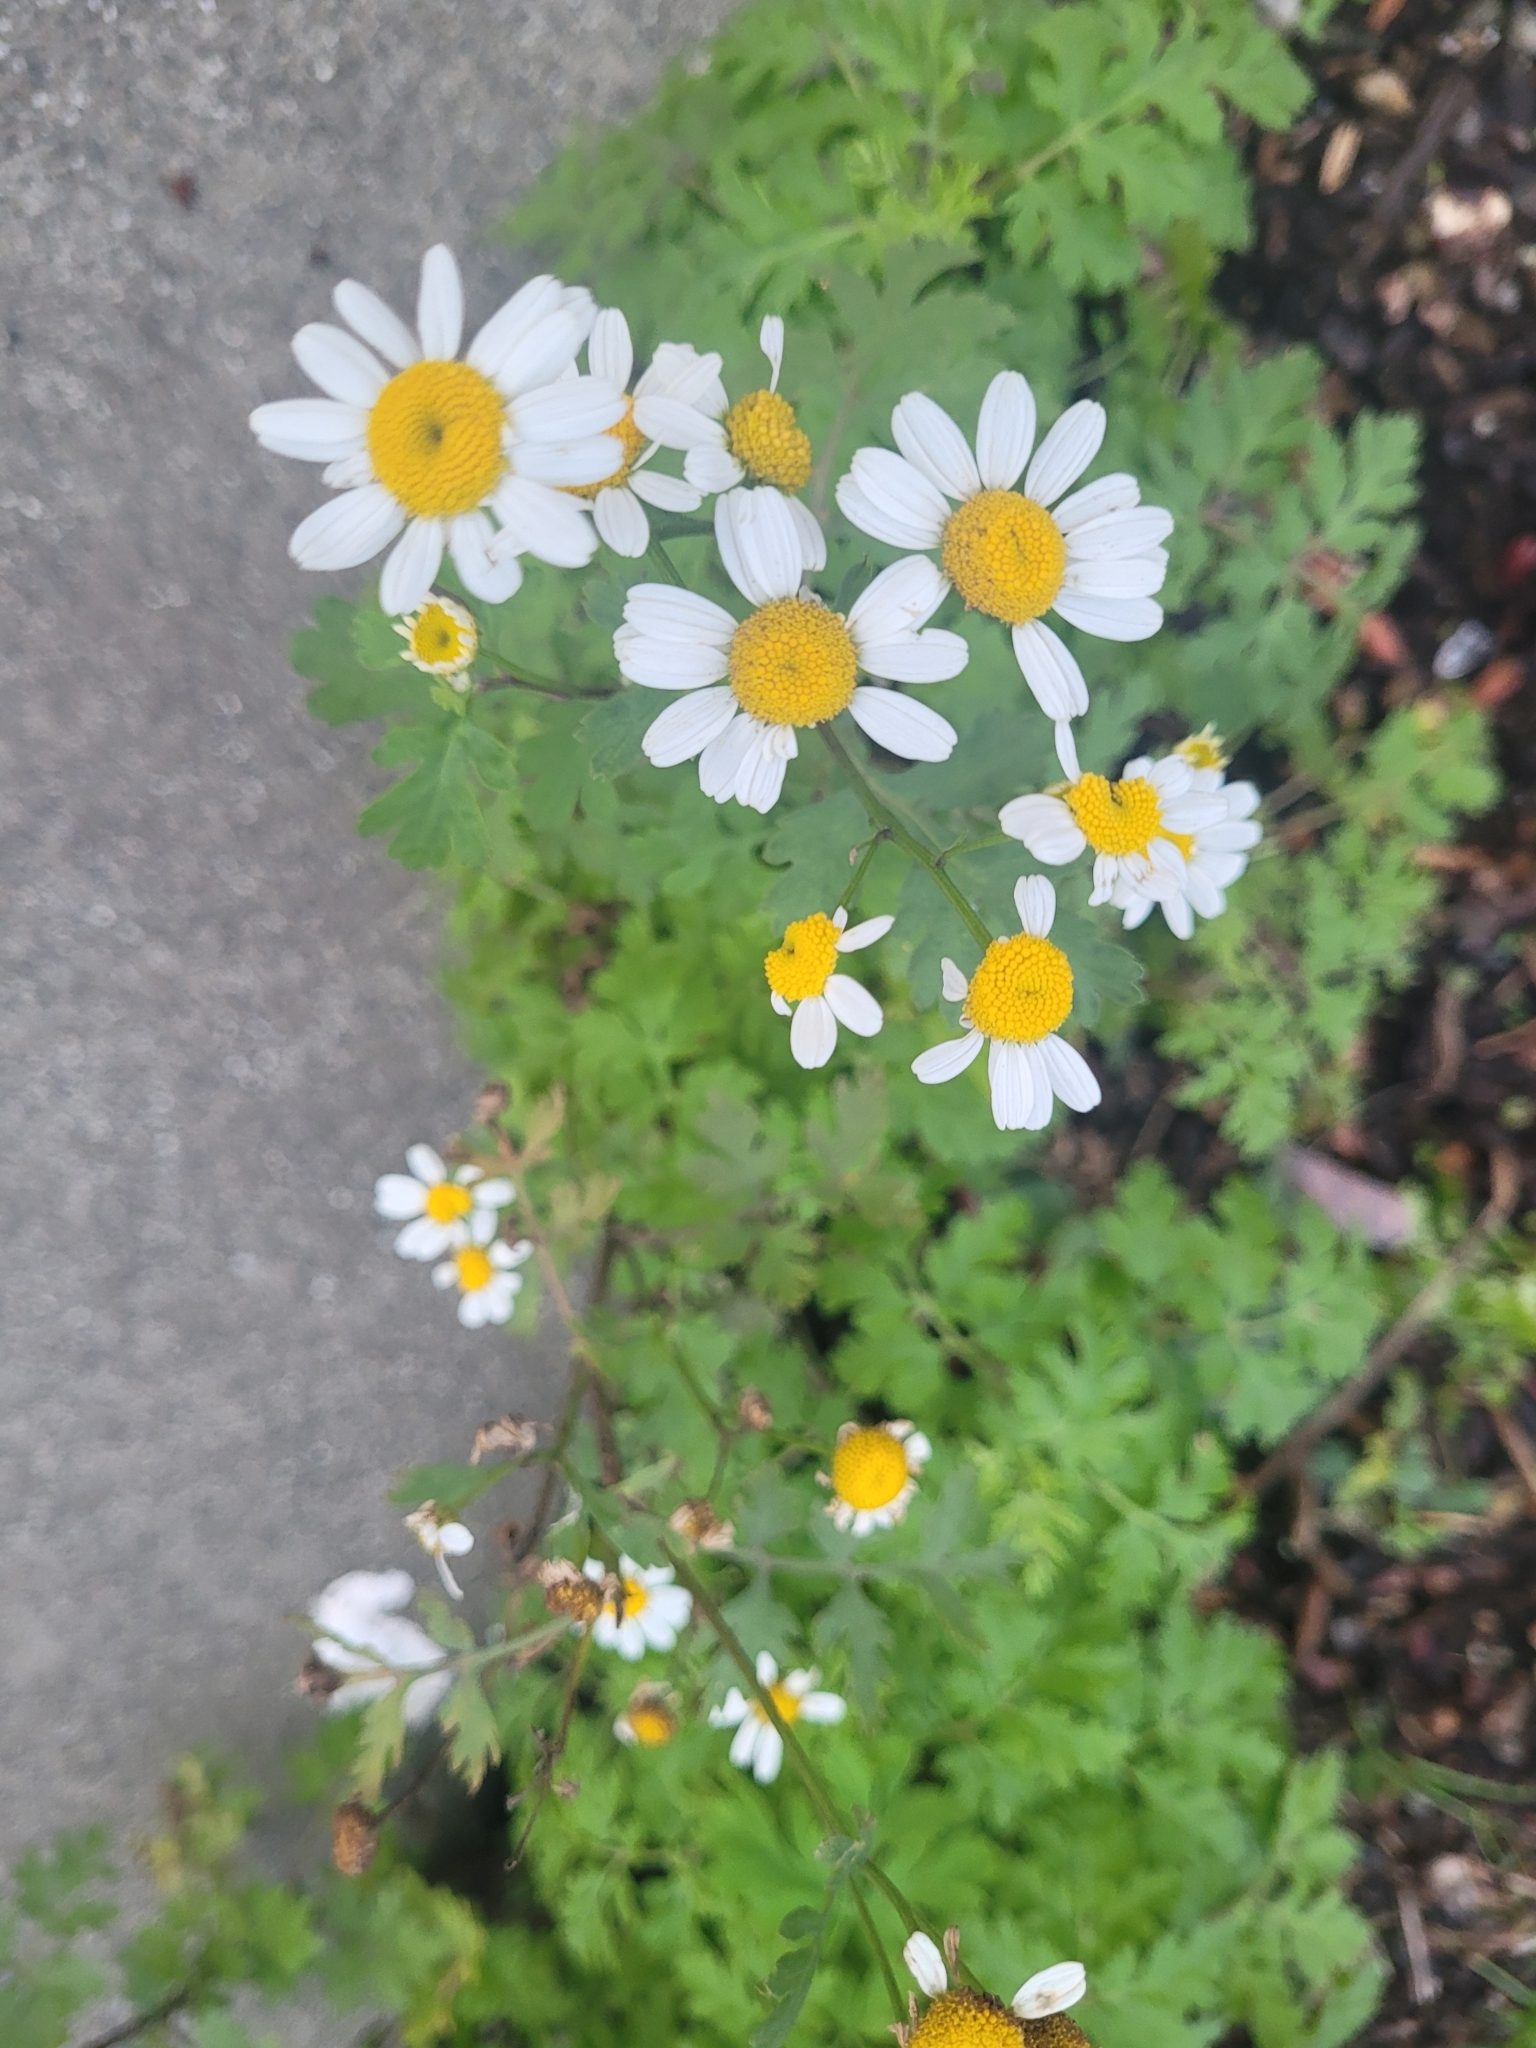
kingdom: Plantae
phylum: Tracheophyta
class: Magnoliopsida
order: Asterales
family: Asteraceae
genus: Tanacetum
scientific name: Tanacetum parthenium
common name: Feverfew
